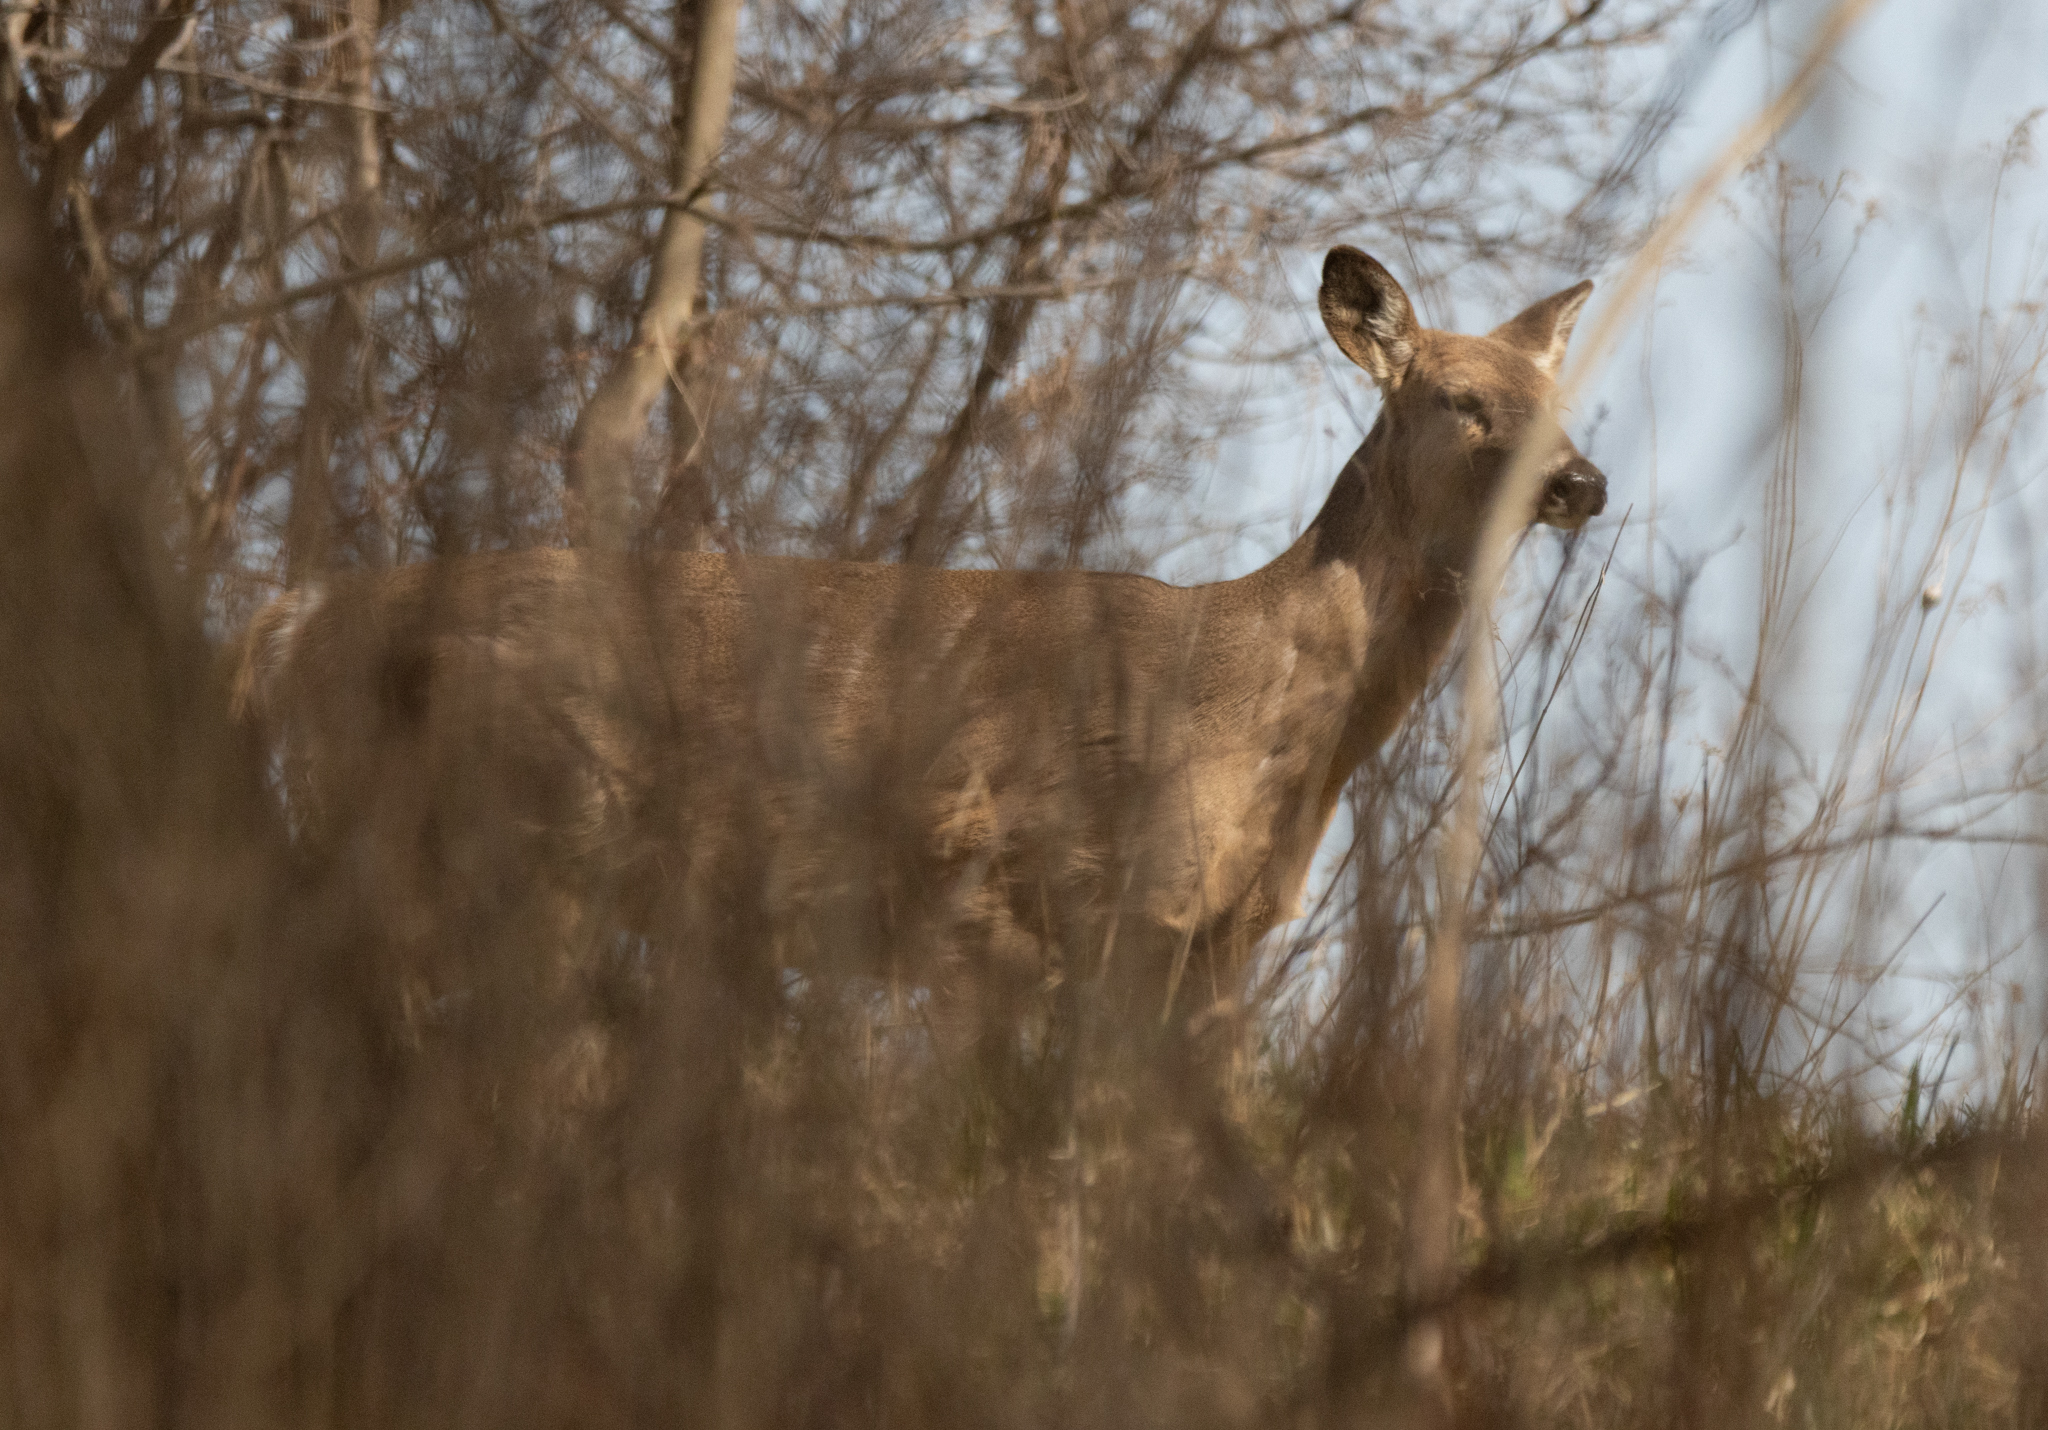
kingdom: Animalia
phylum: Chordata
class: Mammalia
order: Artiodactyla
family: Cervidae
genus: Odocoileus
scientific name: Odocoileus virginianus
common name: White-tailed deer
